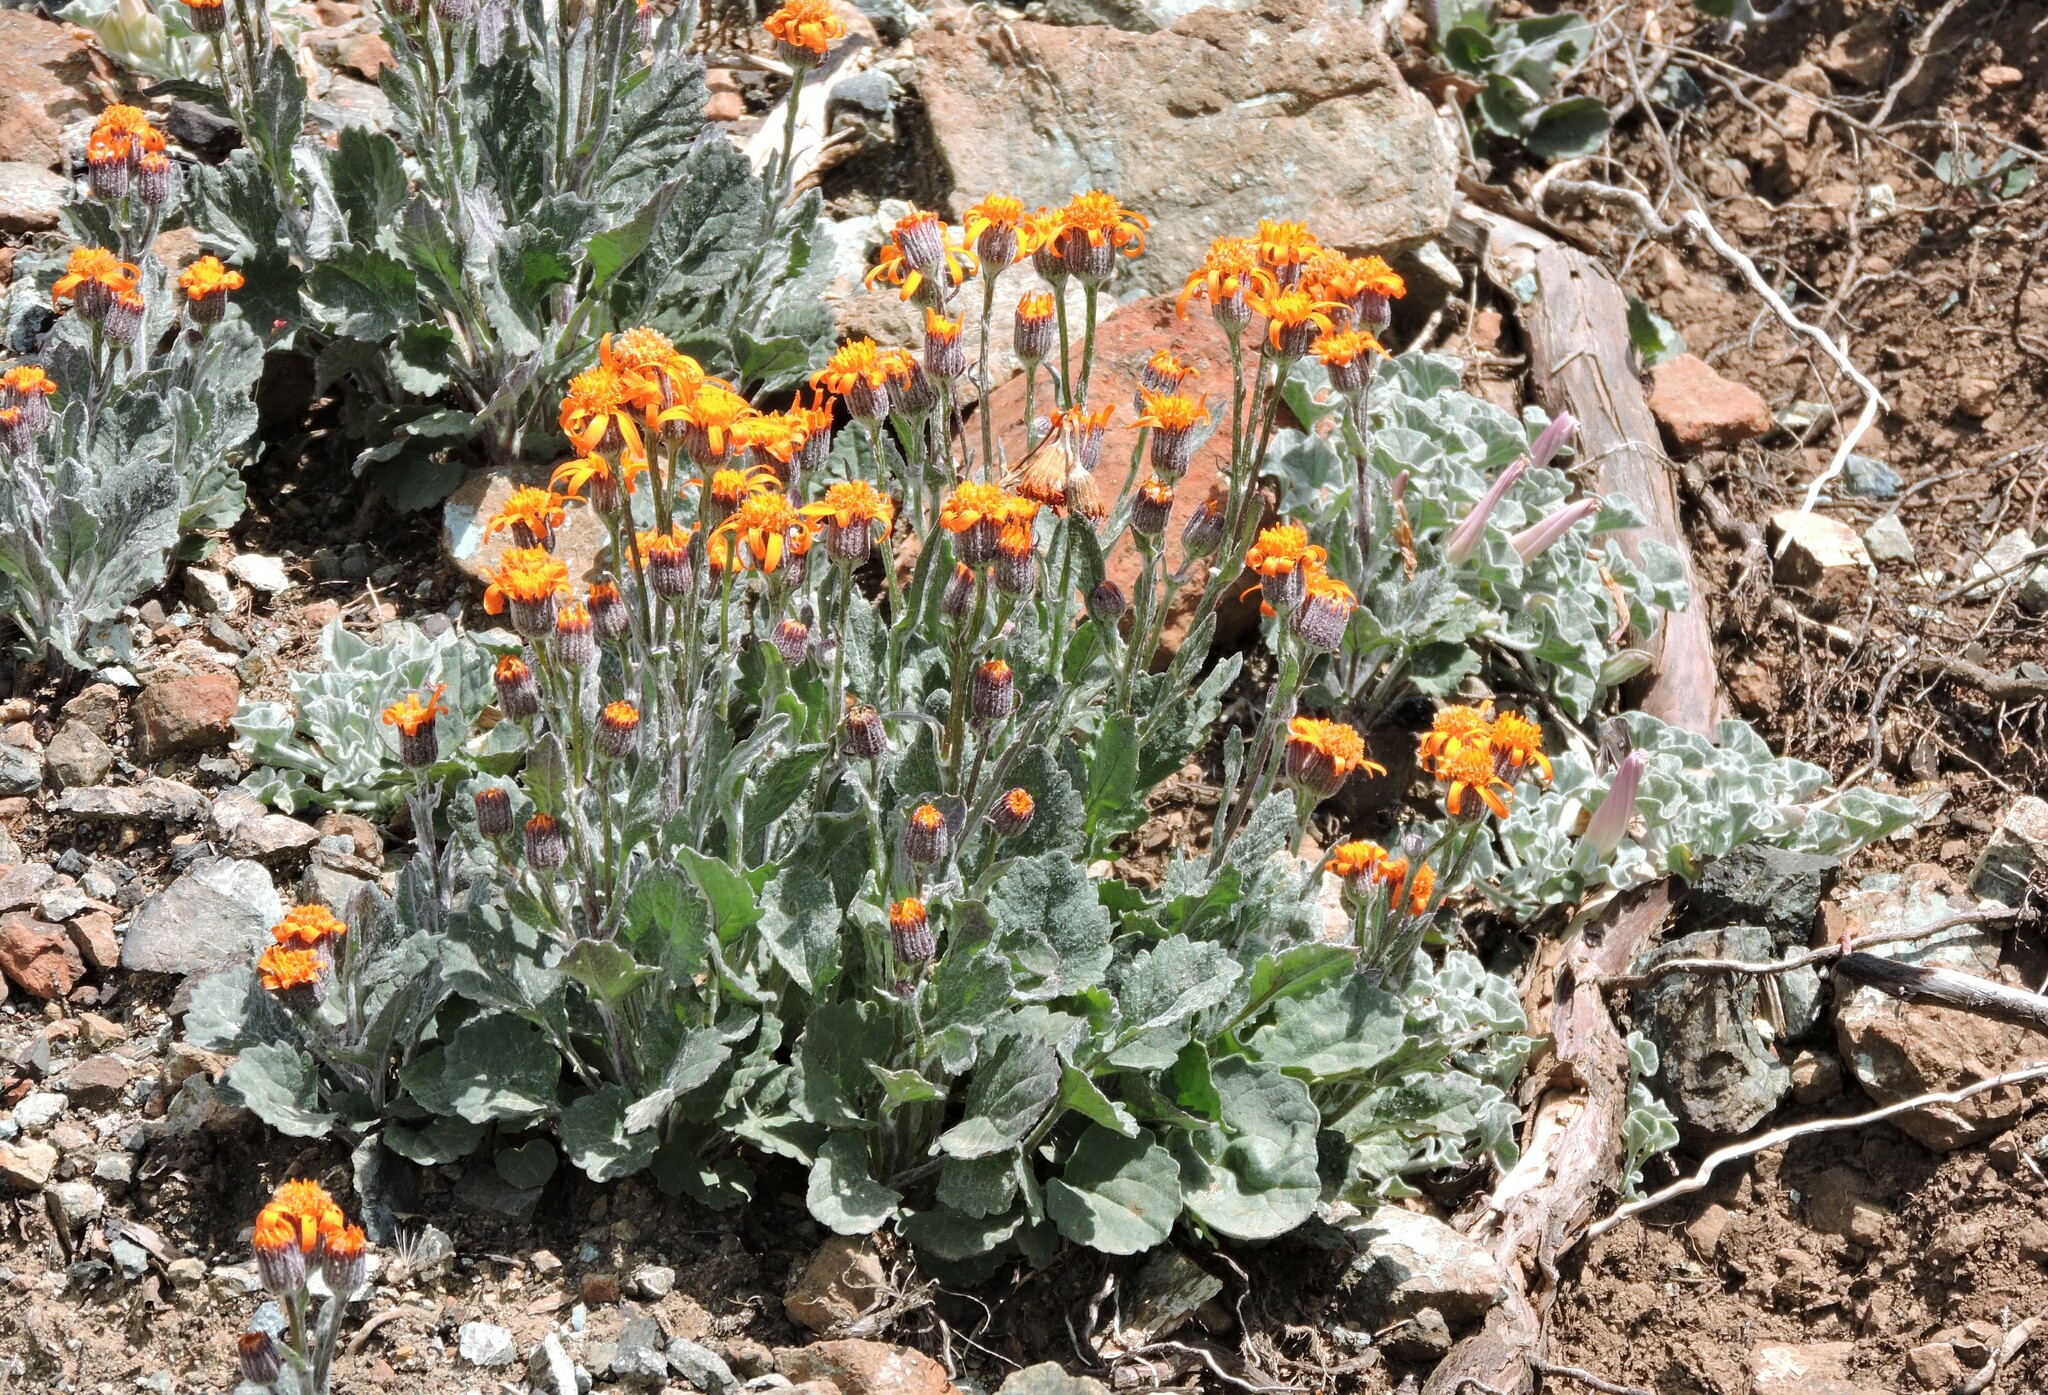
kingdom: Plantae
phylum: Tracheophyta
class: Magnoliopsida
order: Asterales
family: Asteraceae
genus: Packera
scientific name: Packera greenei
